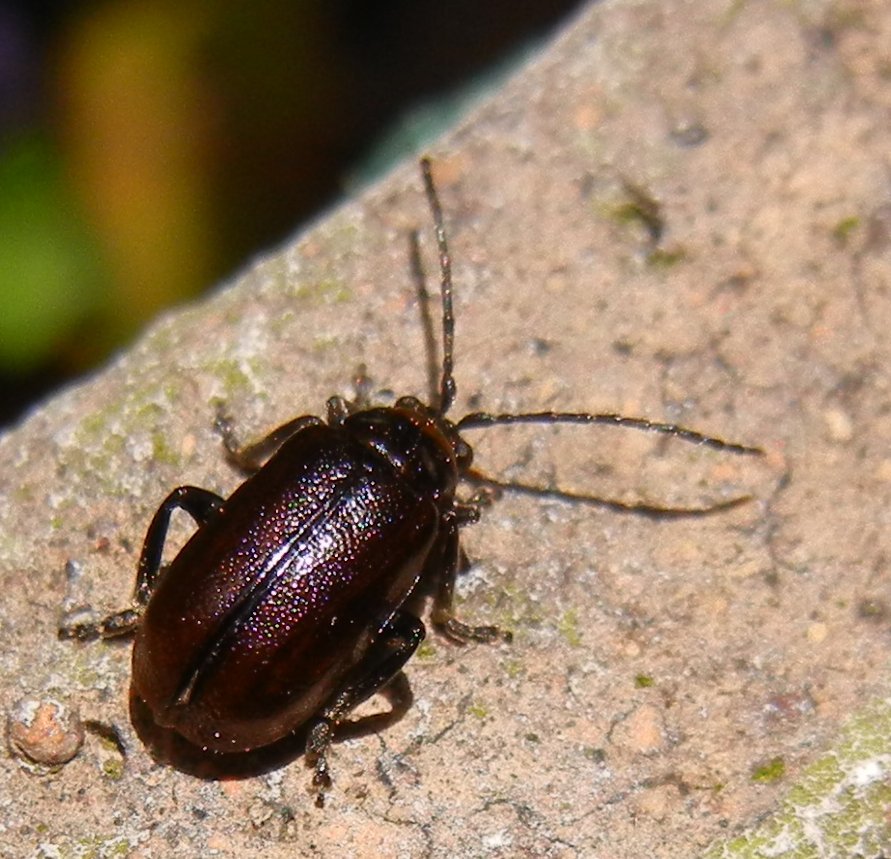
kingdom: Animalia
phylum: Arthropoda
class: Insecta
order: Coleoptera
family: Chrysomelidae
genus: Lochmaea
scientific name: Lochmaea suturalis
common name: Heather beetle
